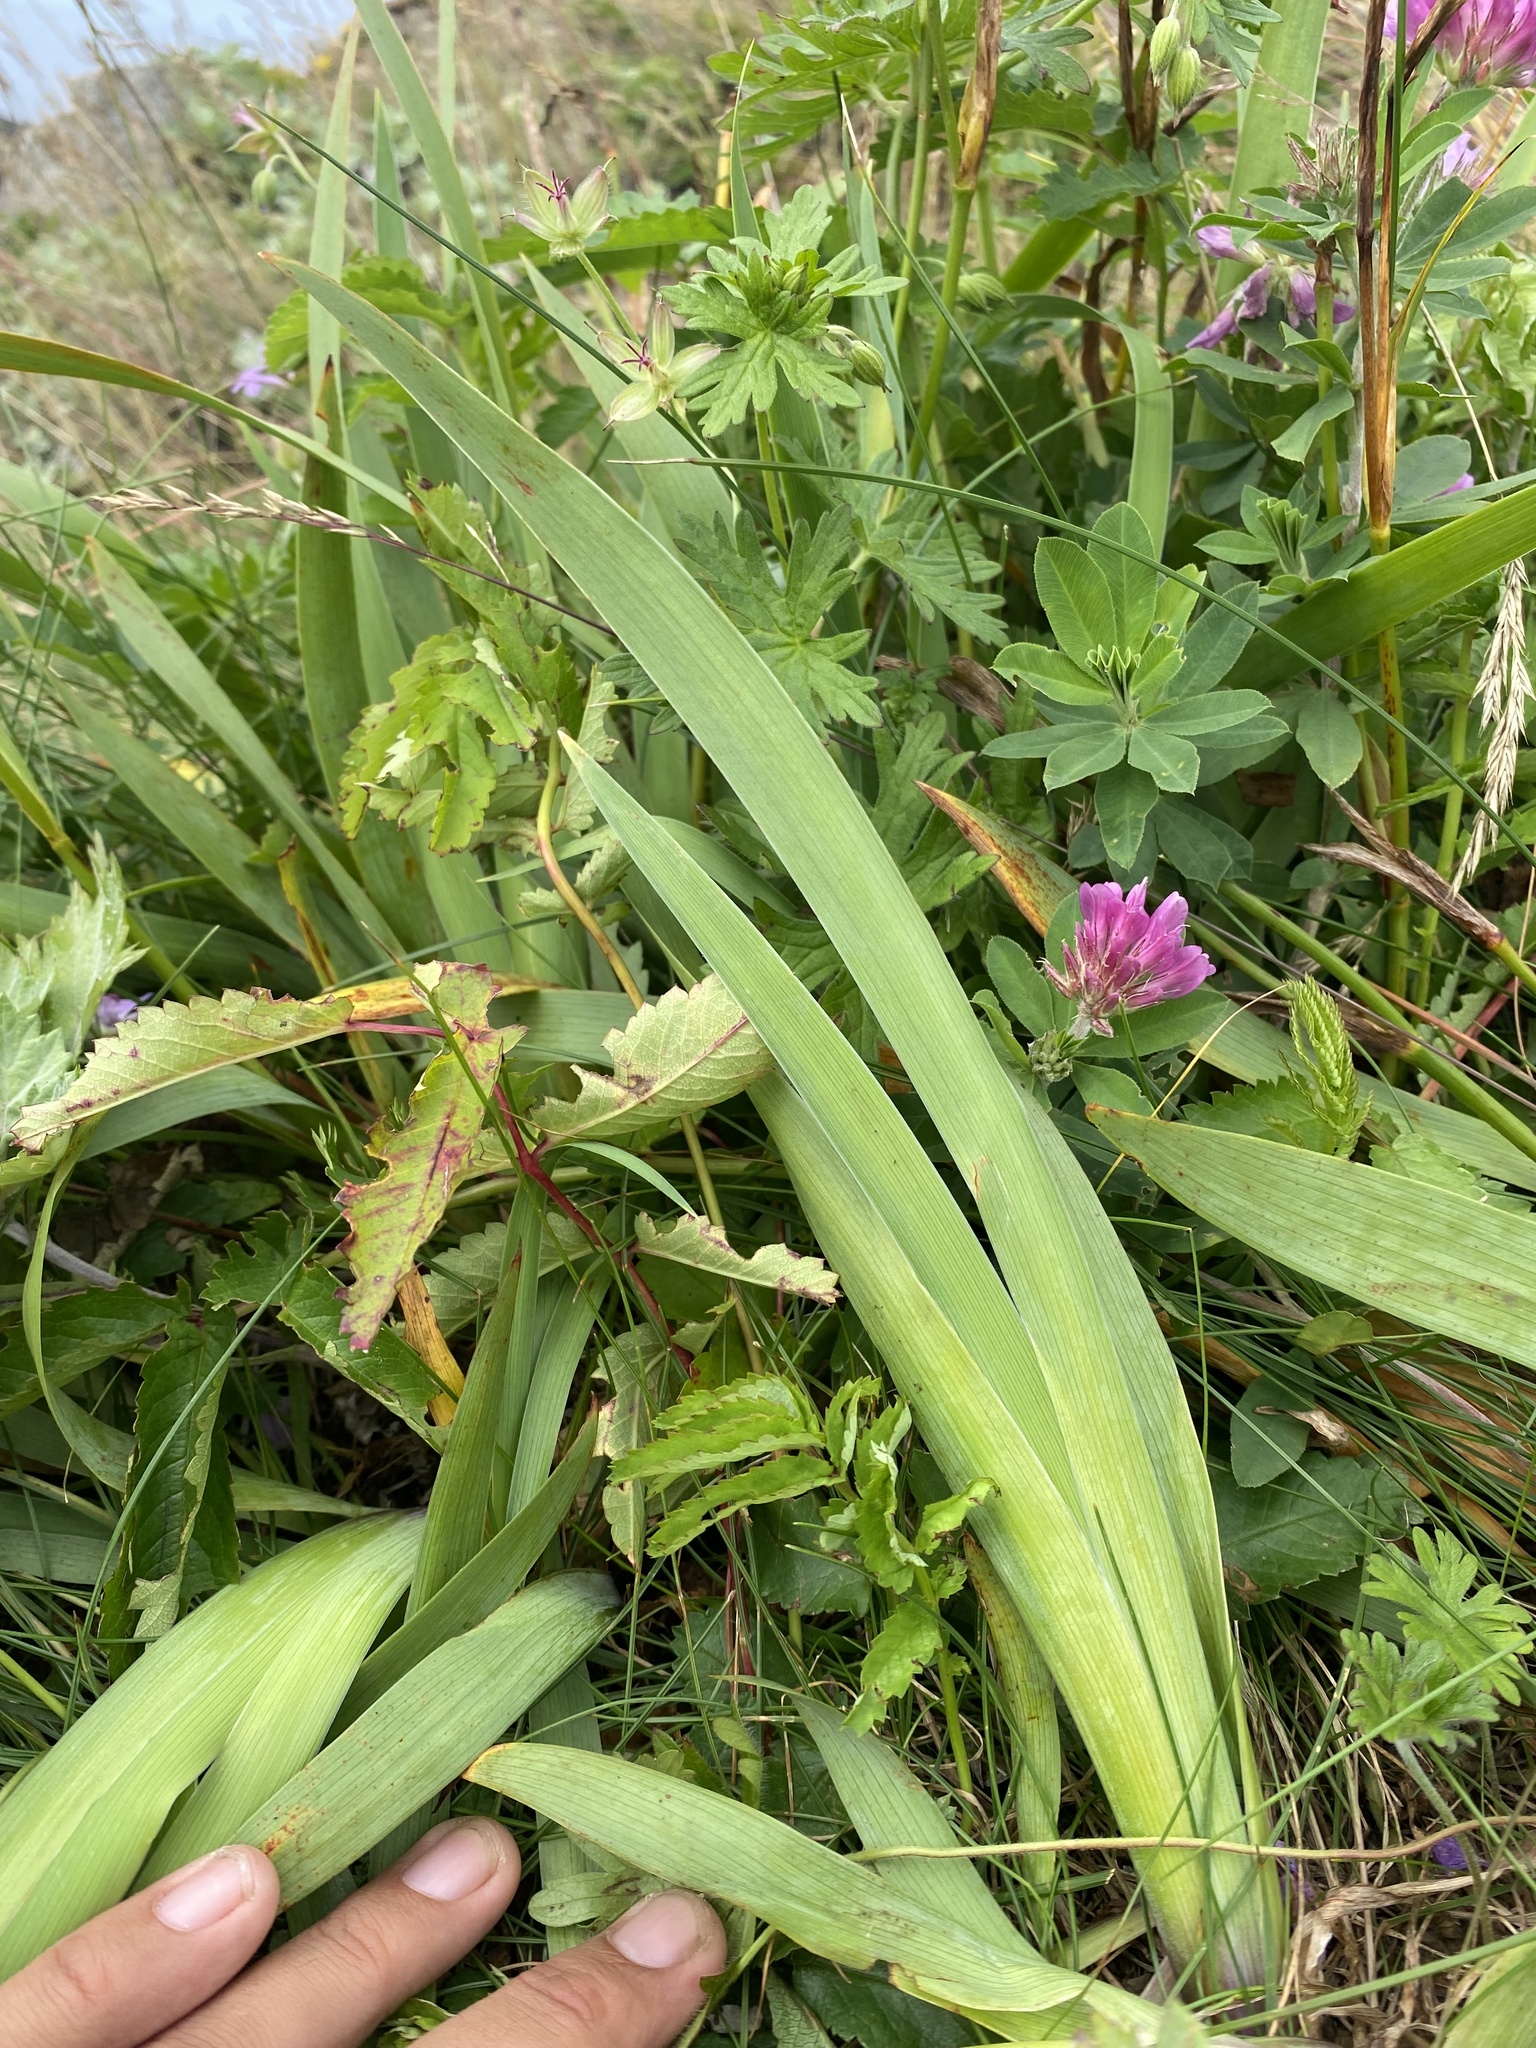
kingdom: Plantae
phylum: Tracheophyta
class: Liliopsida
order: Asparagales
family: Iridaceae
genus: Iris
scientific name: Iris setosa
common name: Arctic blue flag
